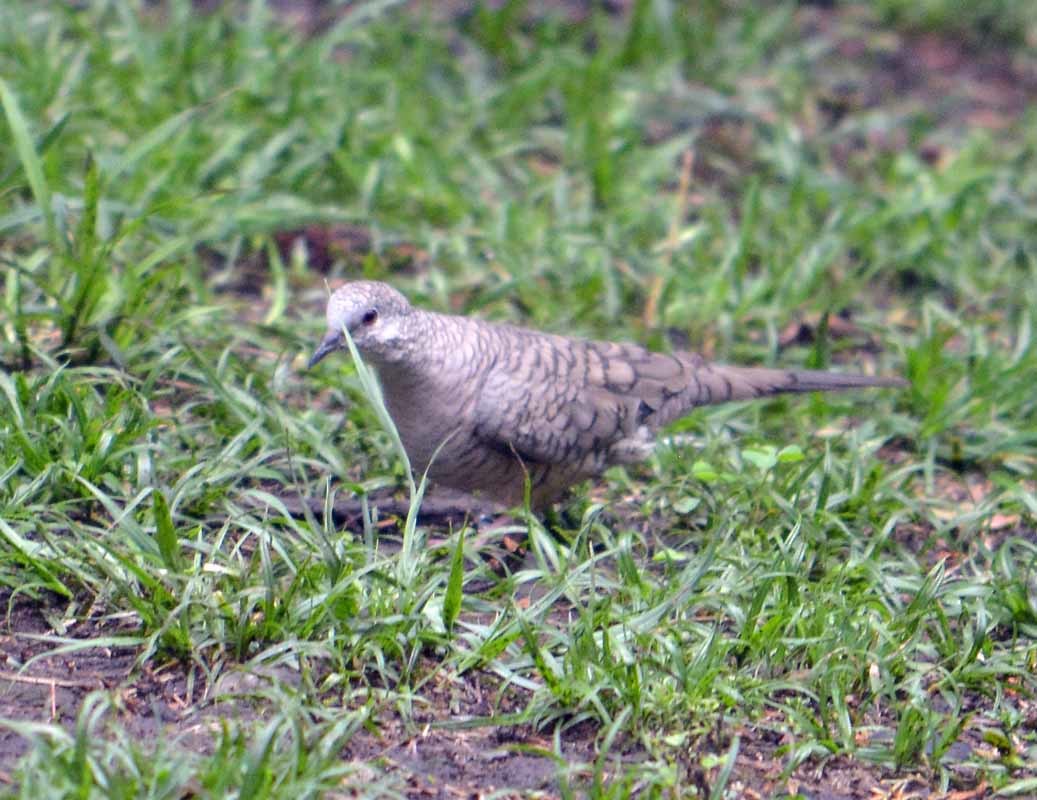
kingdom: Animalia
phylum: Chordata
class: Aves
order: Columbiformes
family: Columbidae
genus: Columbina
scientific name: Columbina inca
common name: Inca dove
